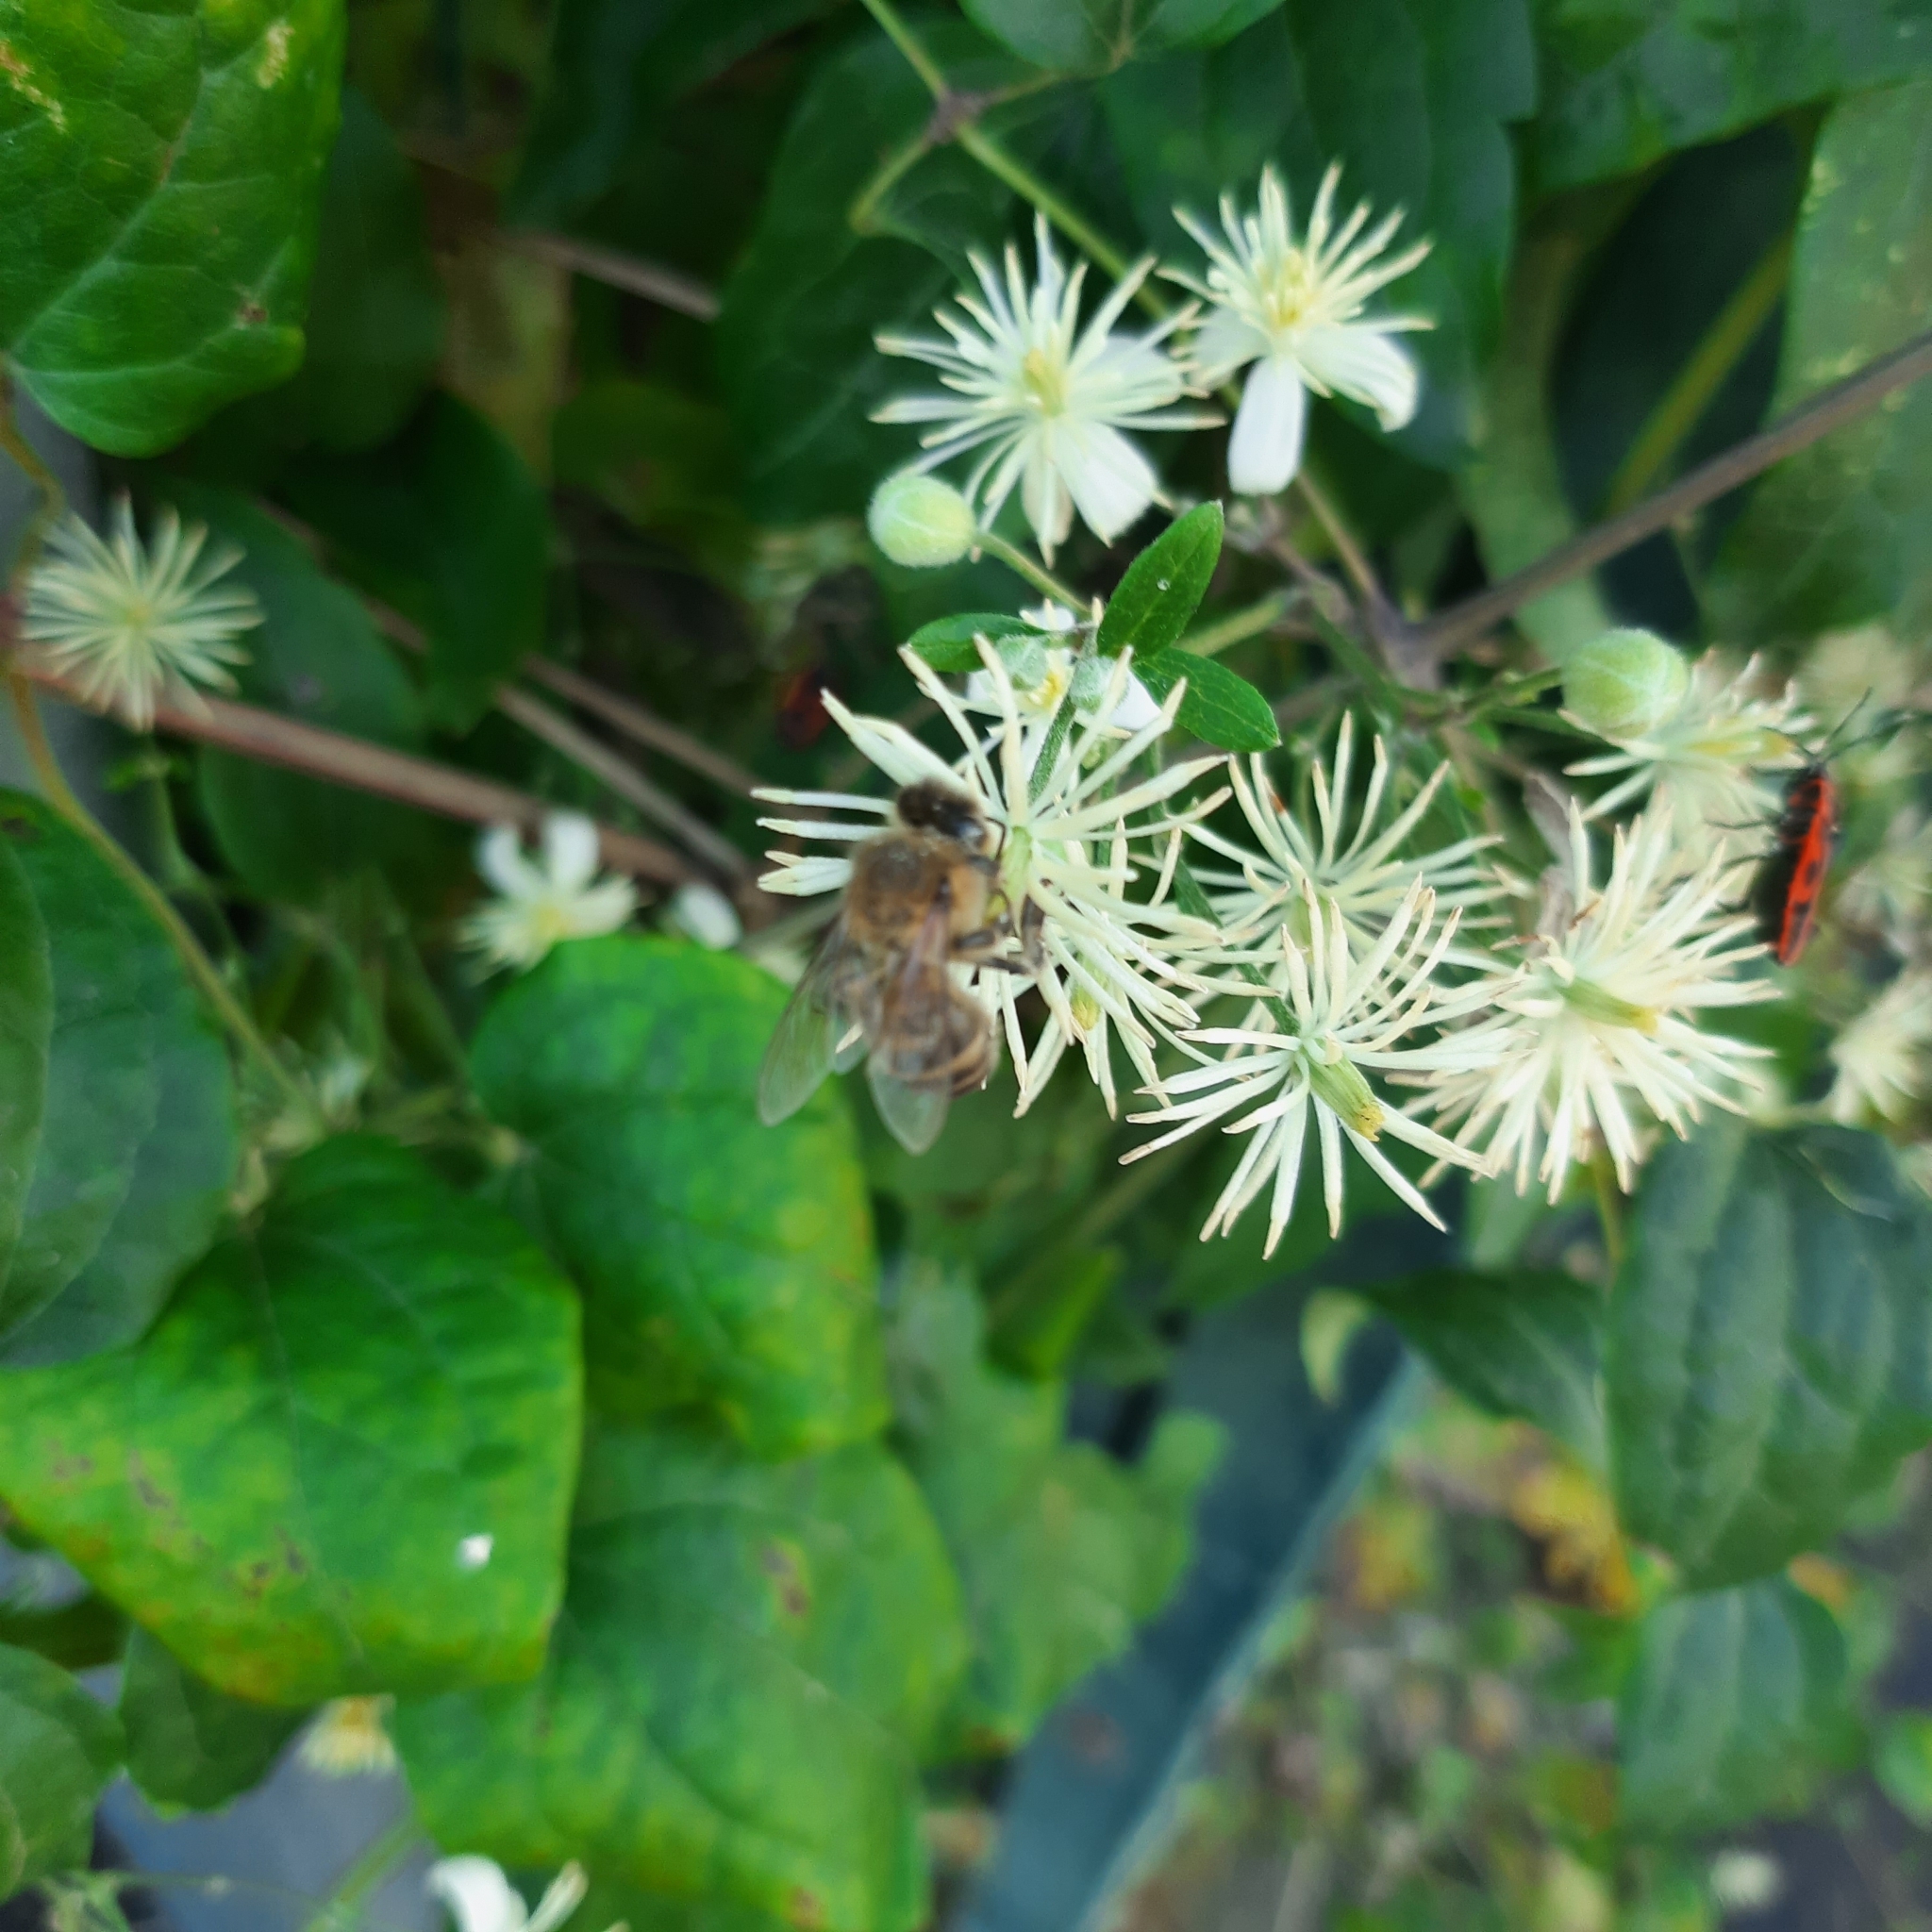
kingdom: Animalia
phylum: Arthropoda
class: Insecta
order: Hymenoptera
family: Apidae
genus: Apis
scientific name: Apis mellifera
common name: Honey bee
